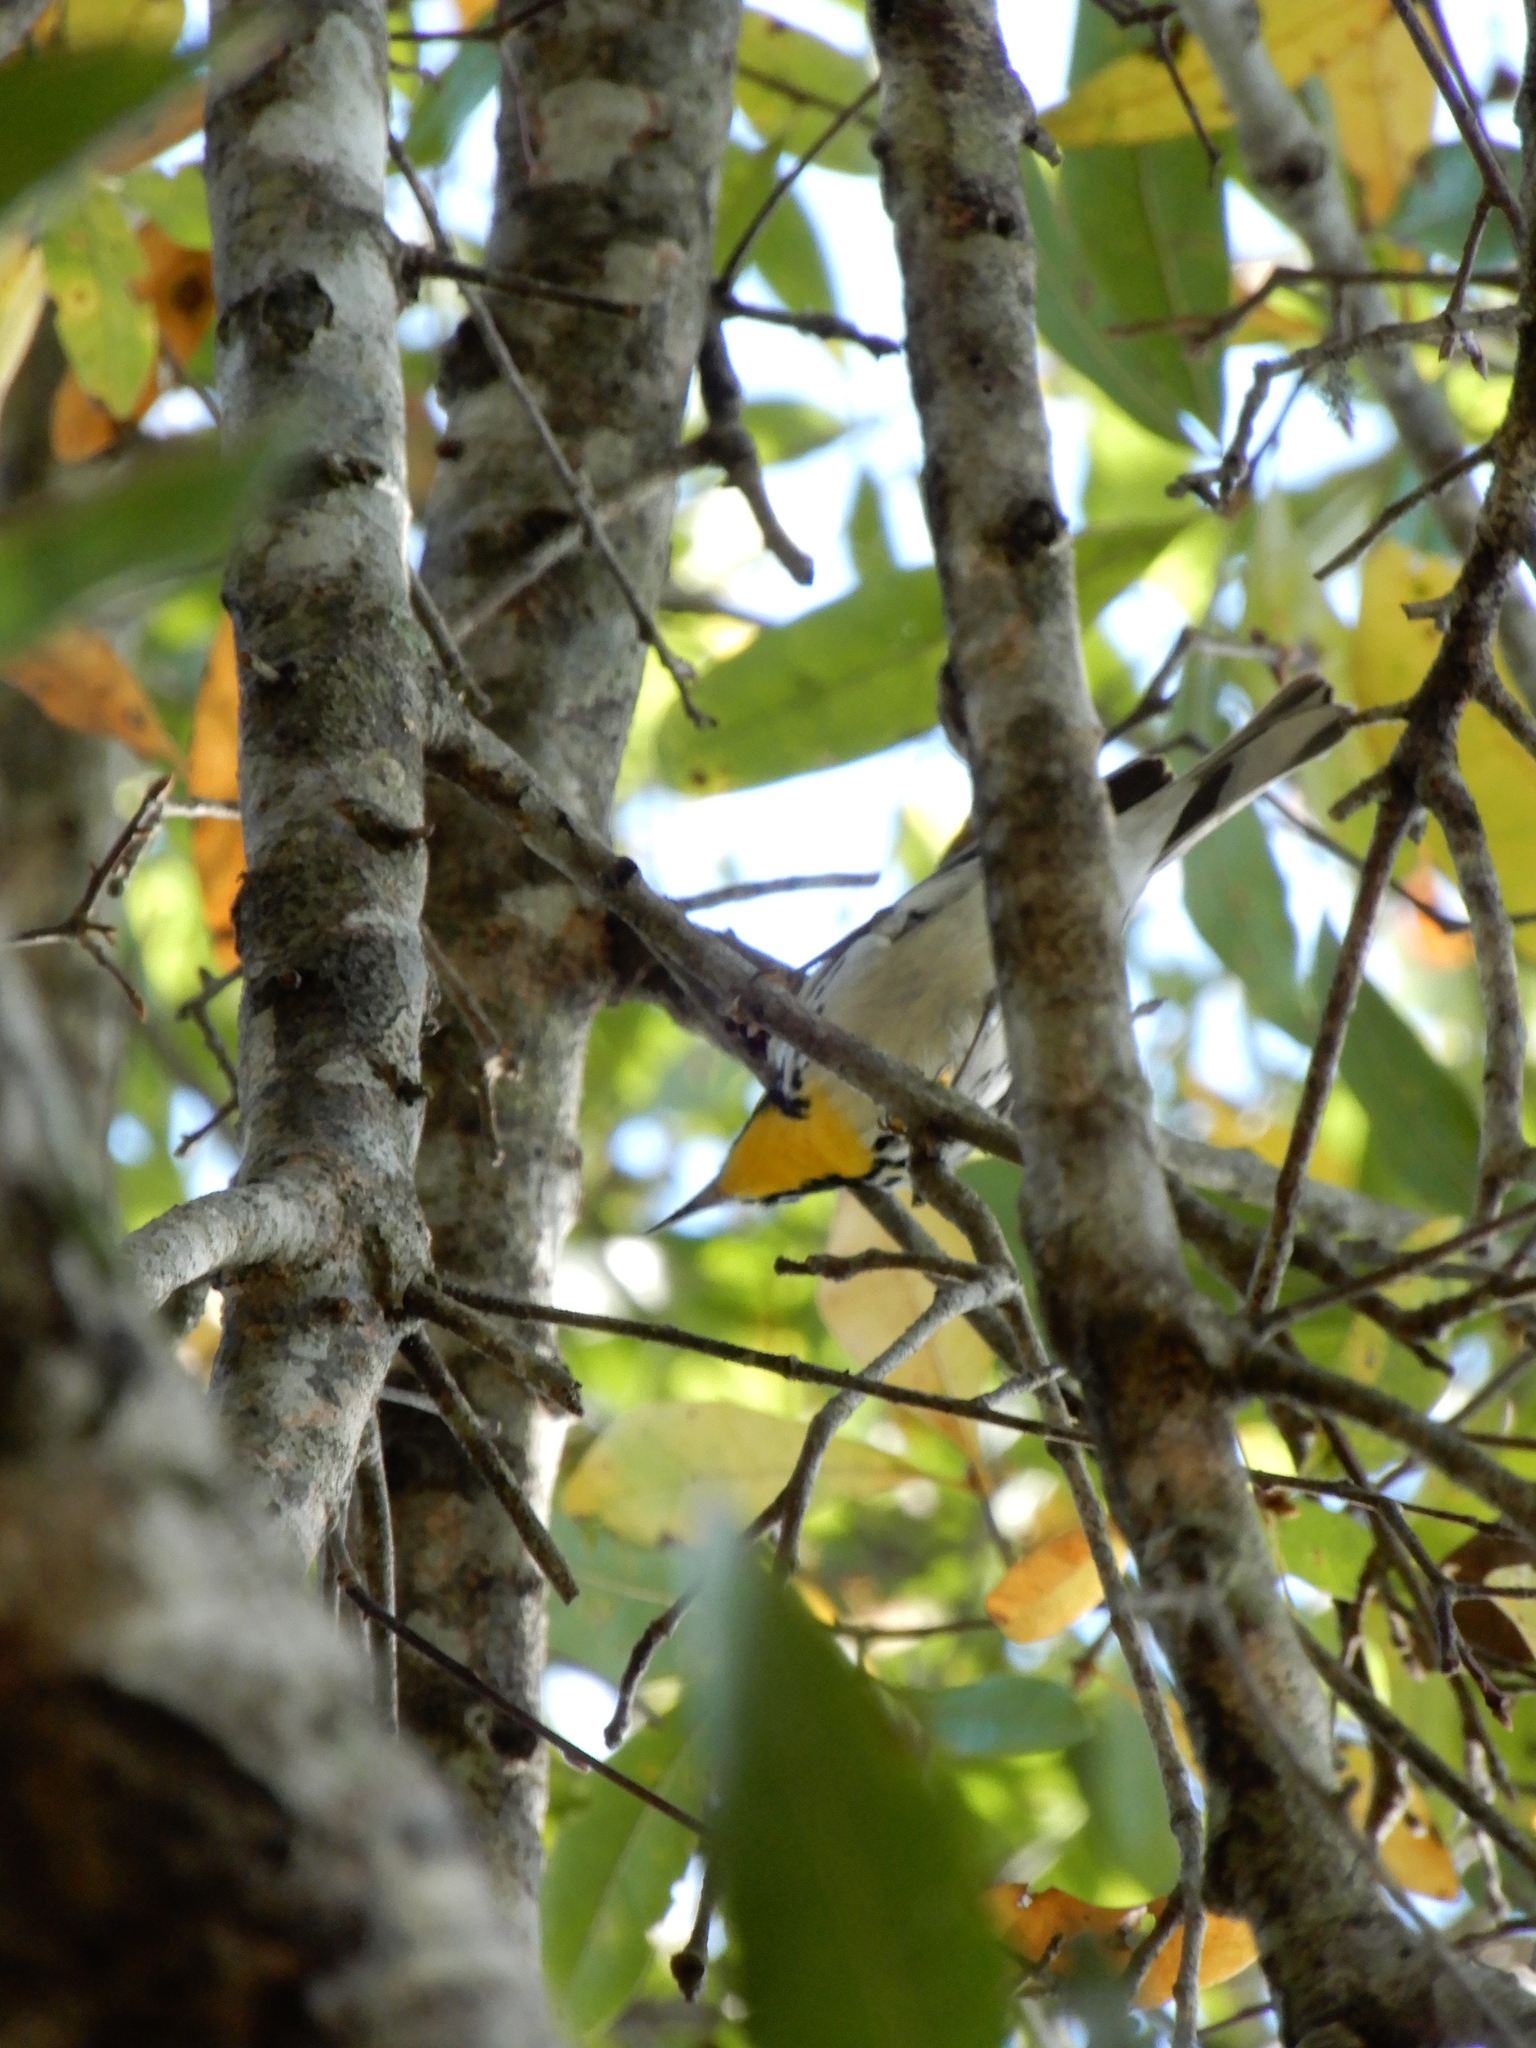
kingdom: Animalia
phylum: Chordata
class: Aves
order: Passeriformes
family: Parulidae
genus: Setophaga
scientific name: Setophaga dominica
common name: Yellow-throated warbler
